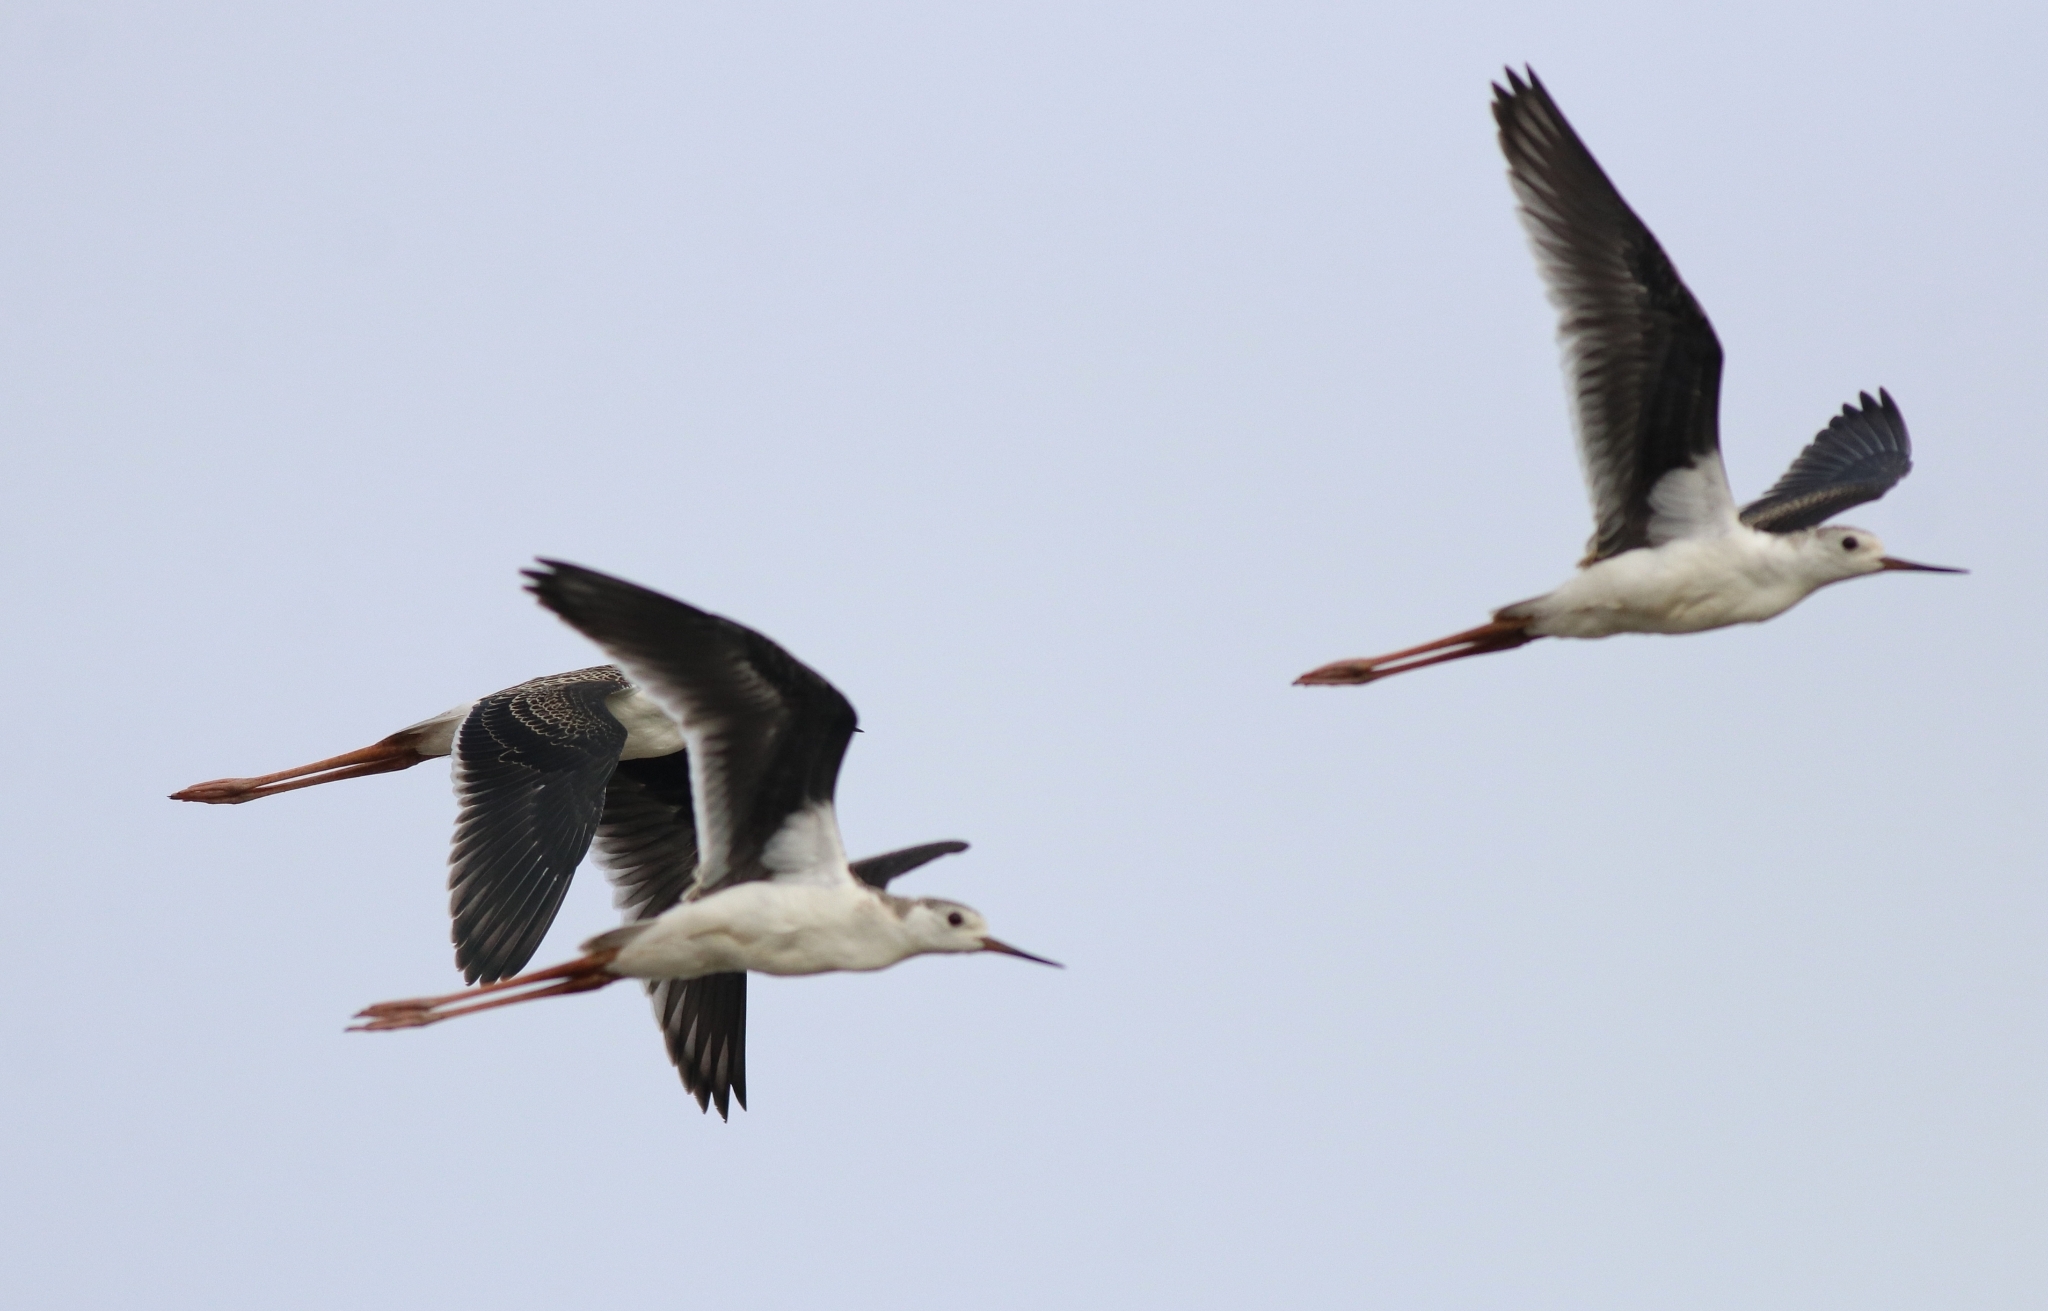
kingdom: Animalia
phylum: Chordata
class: Aves
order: Charadriiformes
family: Recurvirostridae
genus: Himantopus
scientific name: Himantopus himantopus
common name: Black-winged stilt
